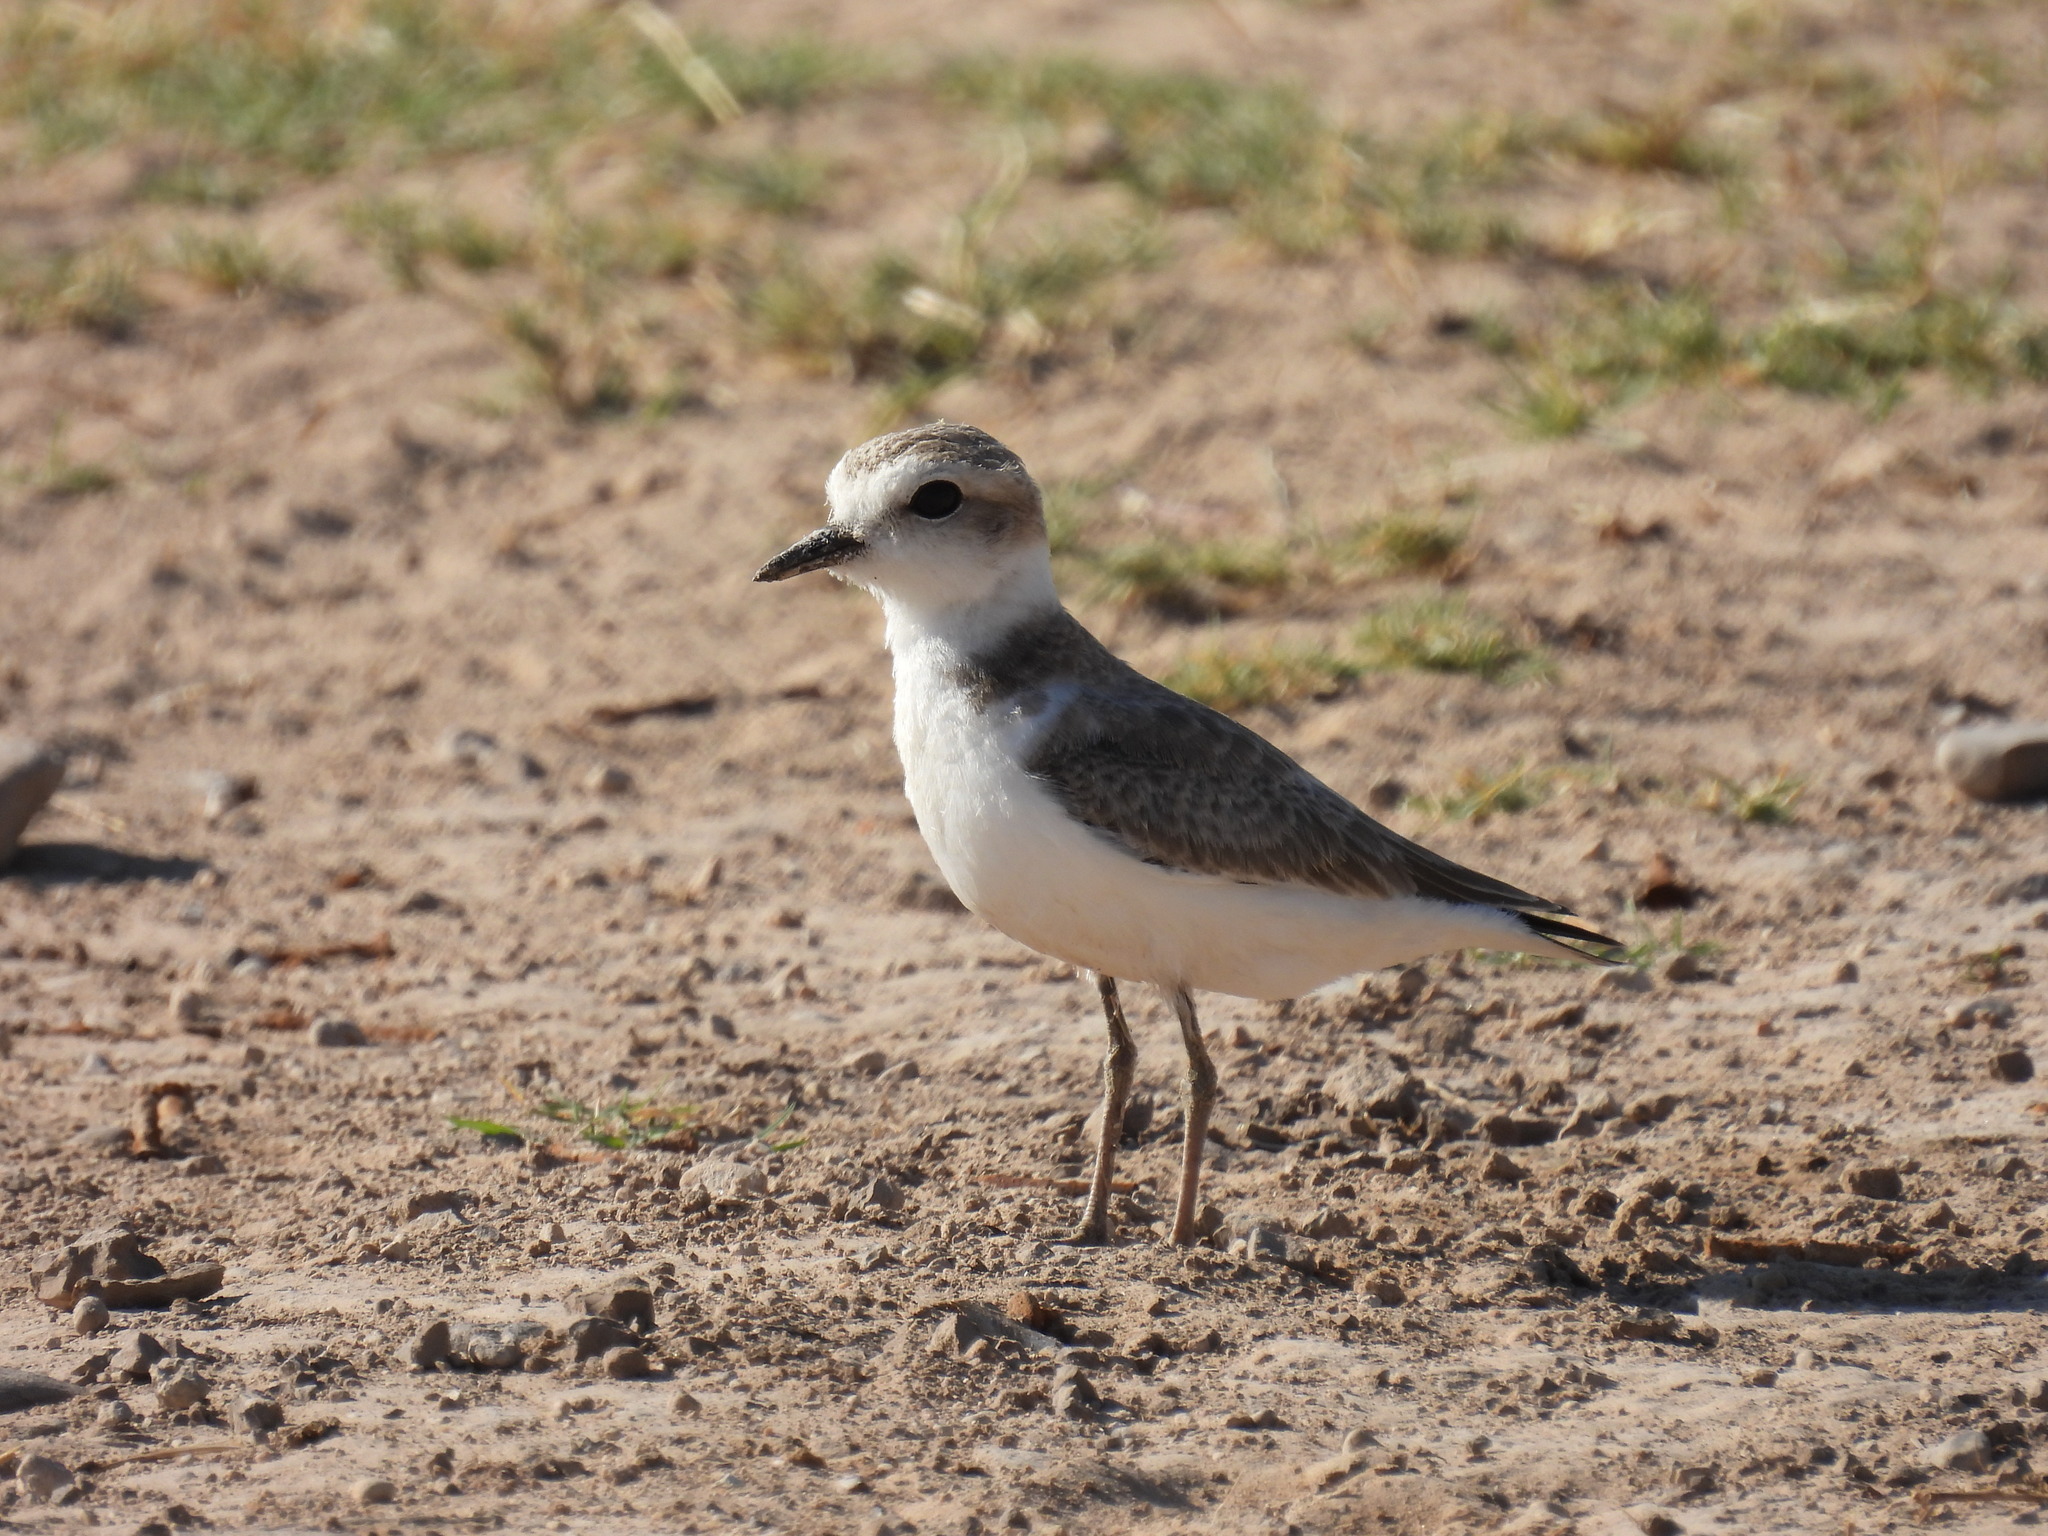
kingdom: Animalia
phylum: Chordata
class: Aves
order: Charadriiformes
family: Charadriidae
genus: Anarhynchus
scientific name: Anarhynchus
